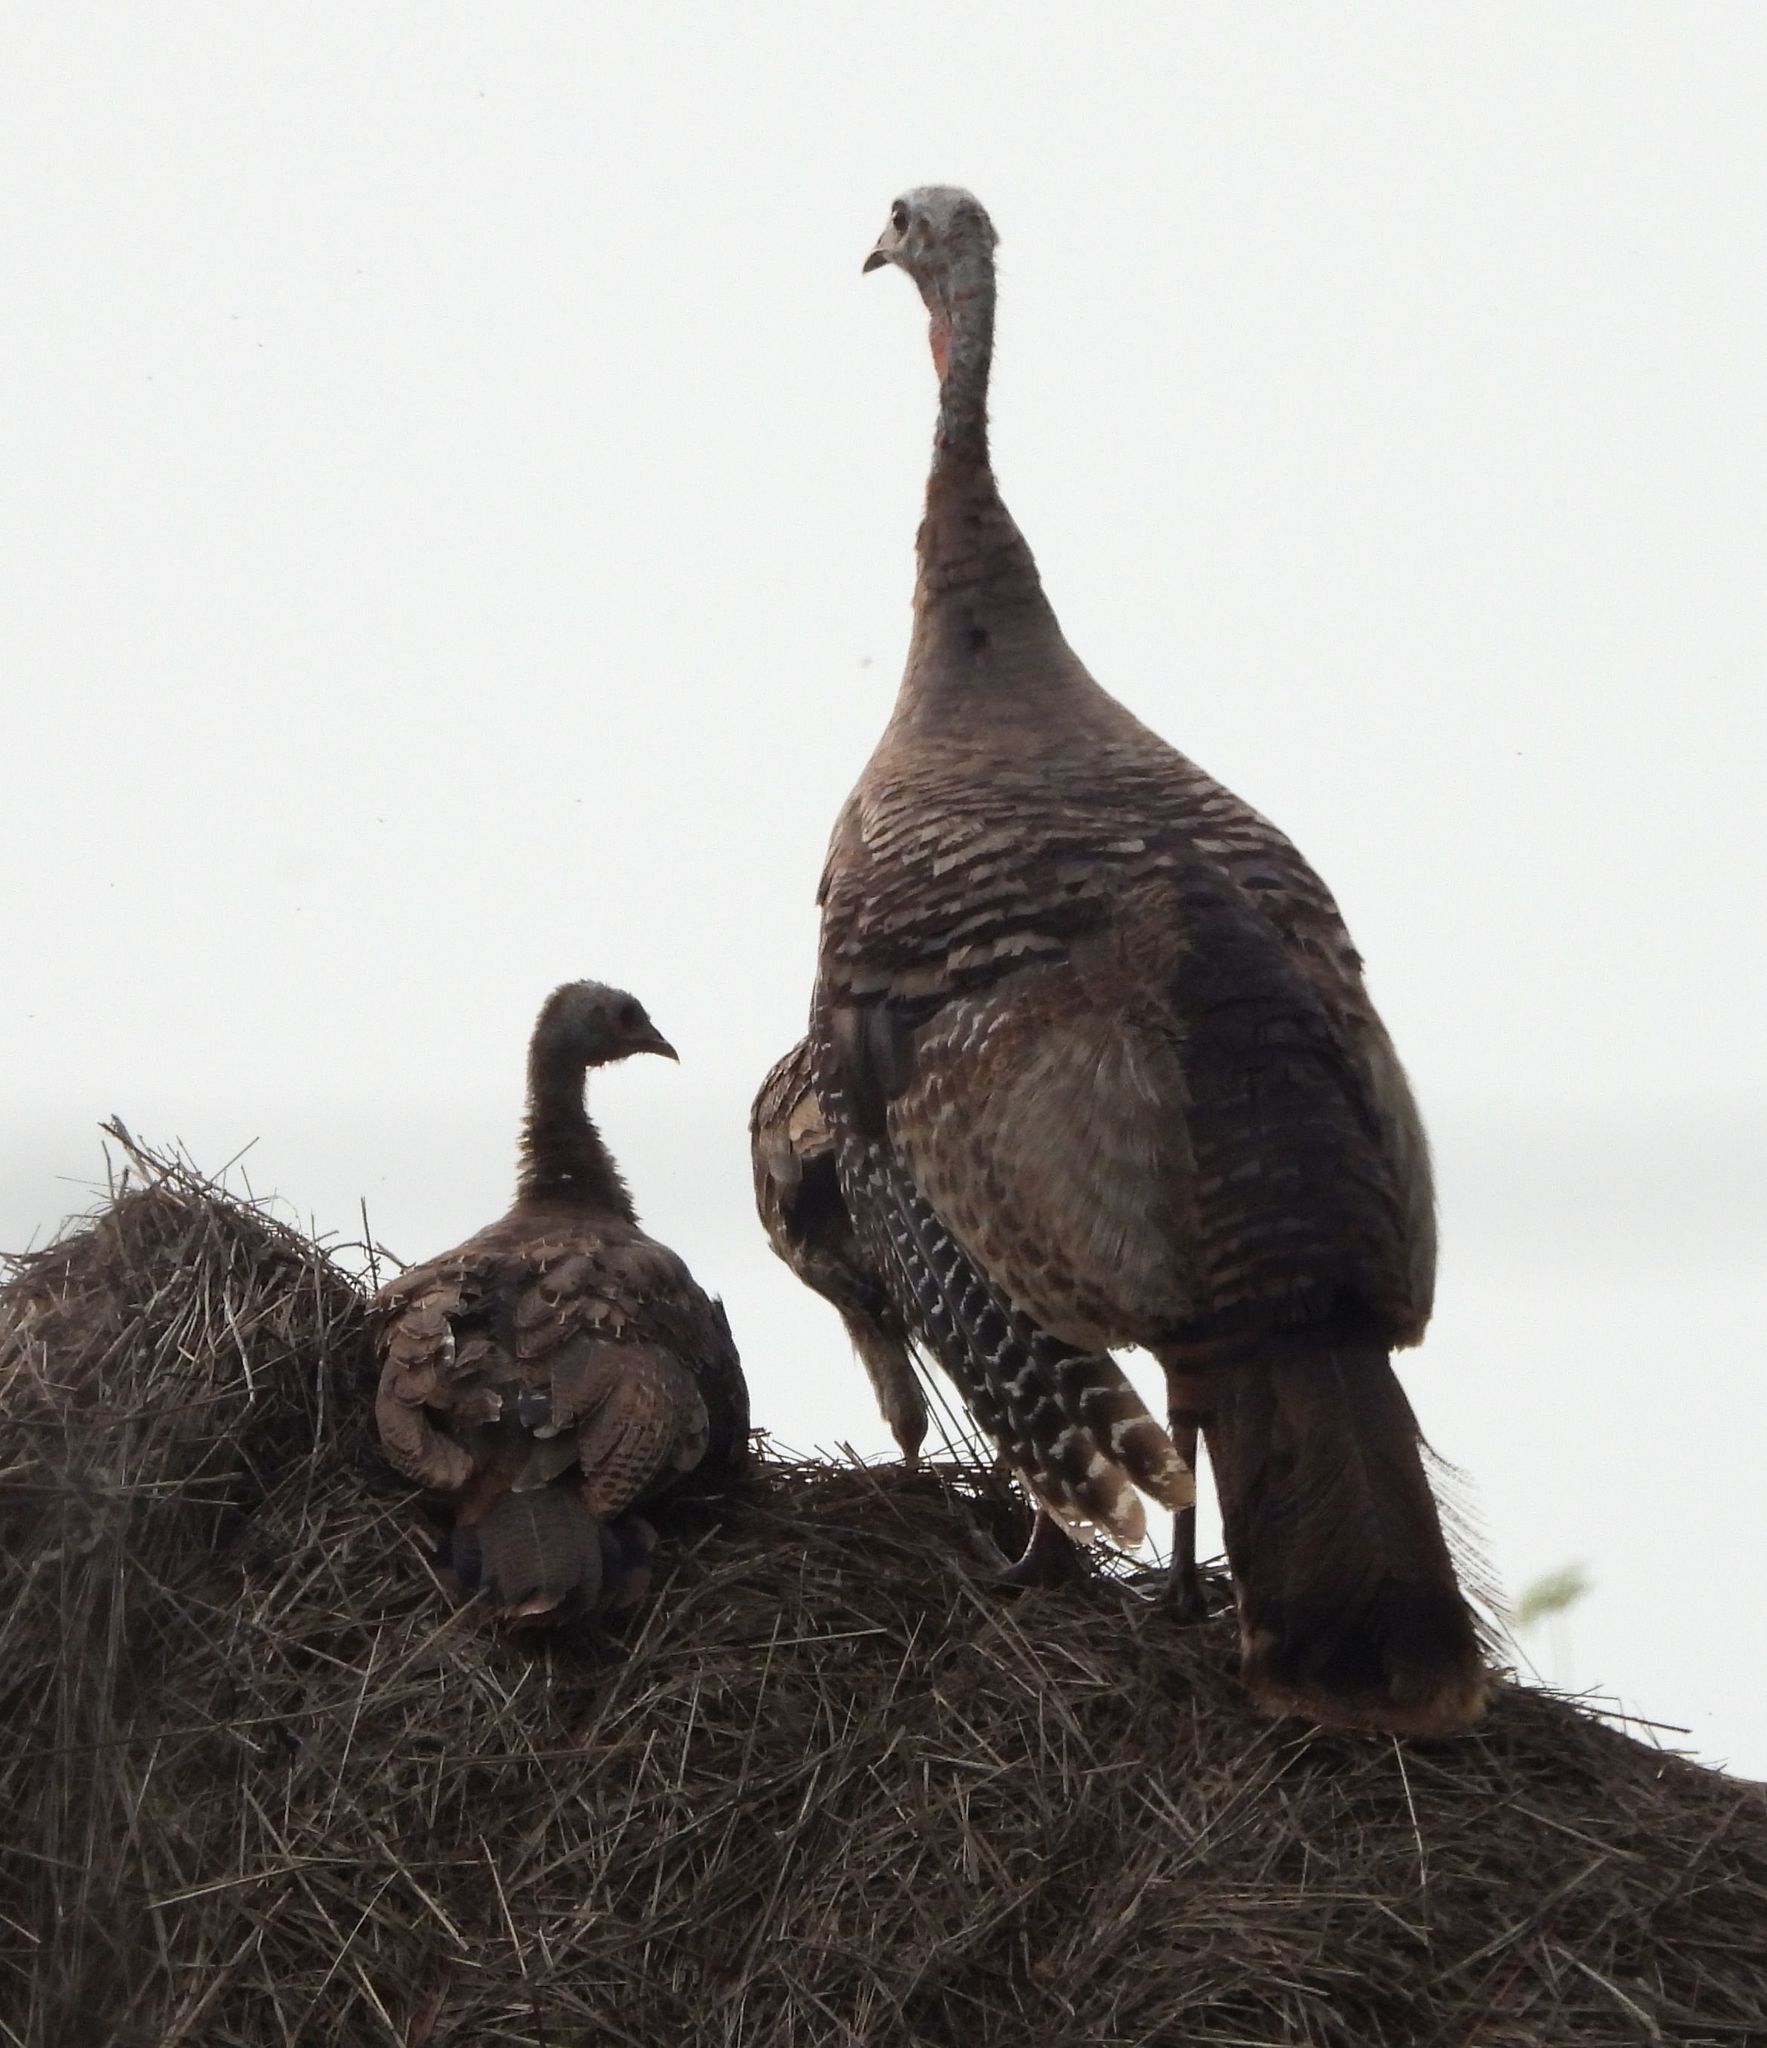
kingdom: Animalia
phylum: Chordata
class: Aves
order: Galliformes
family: Phasianidae
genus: Meleagris
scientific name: Meleagris gallopavo
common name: Wild turkey
